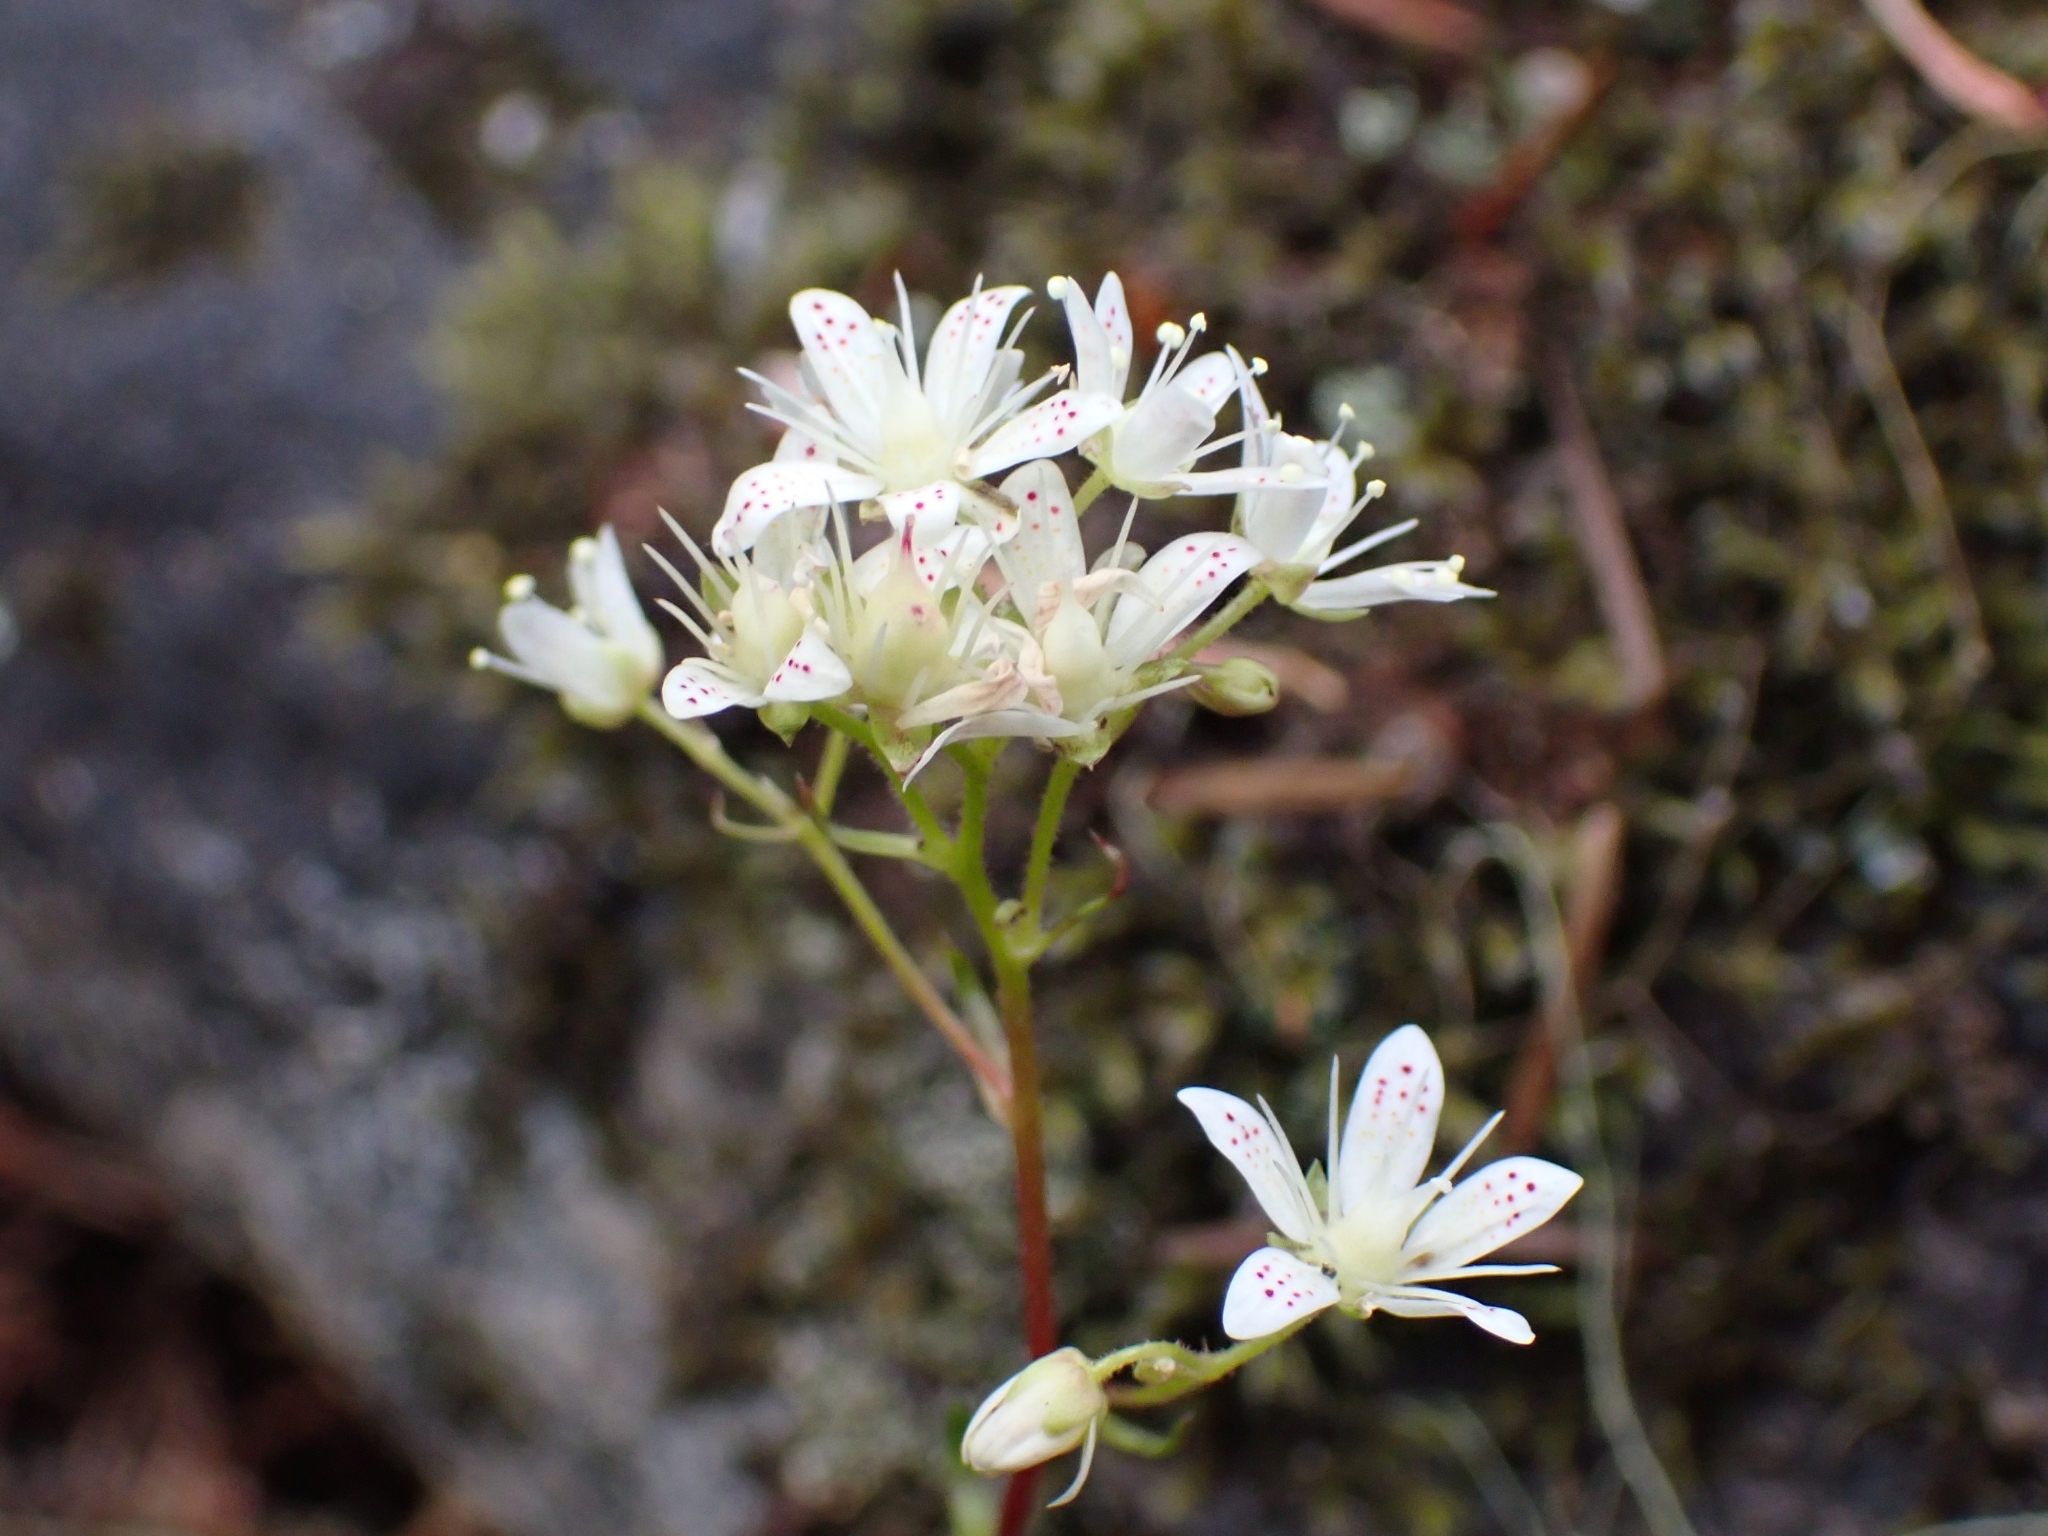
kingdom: Plantae
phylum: Tracheophyta
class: Magnoliopsida
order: Saxifragales
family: Saxifragaceae
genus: Saxifraga
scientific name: Saxifraga bronchialis
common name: Matted saxifrage
